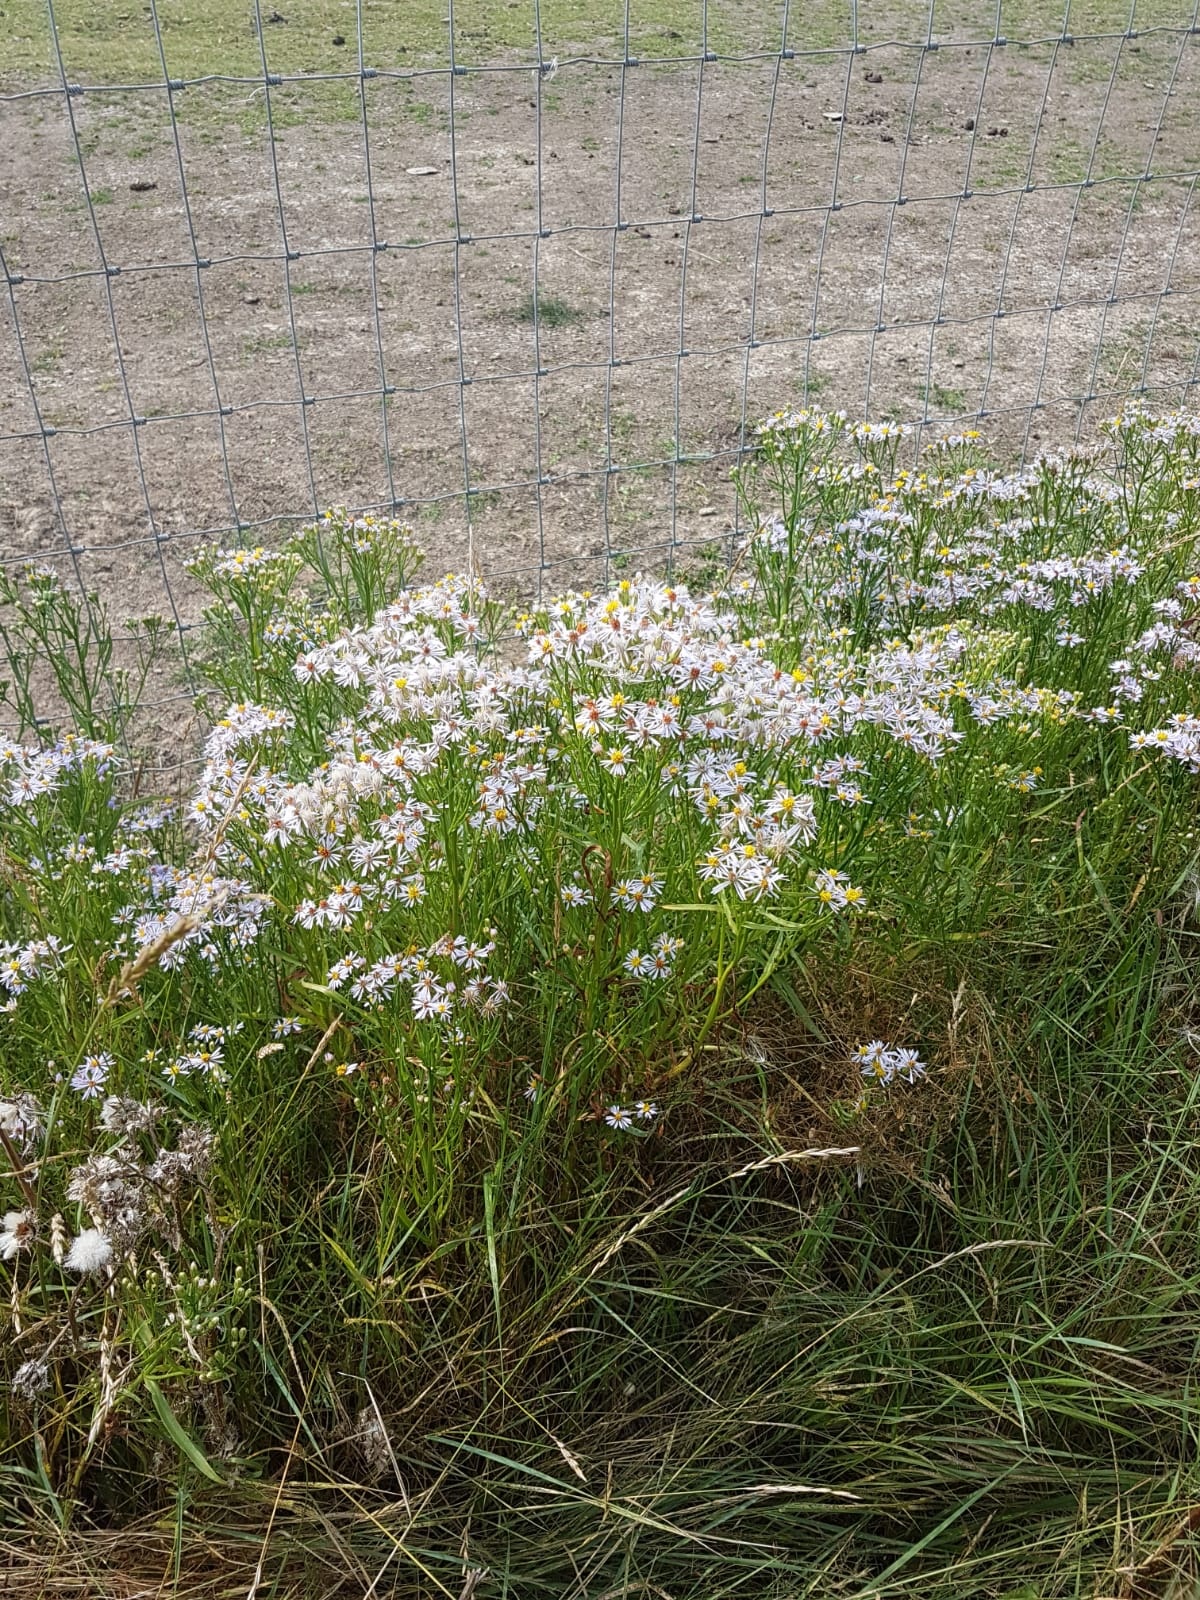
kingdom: Plantae
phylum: Tracheophyta
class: Magnoliopsida
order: Asterales
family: Asteraceae
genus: Tripolium
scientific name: Tripolium pannonicum
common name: Sea aster
